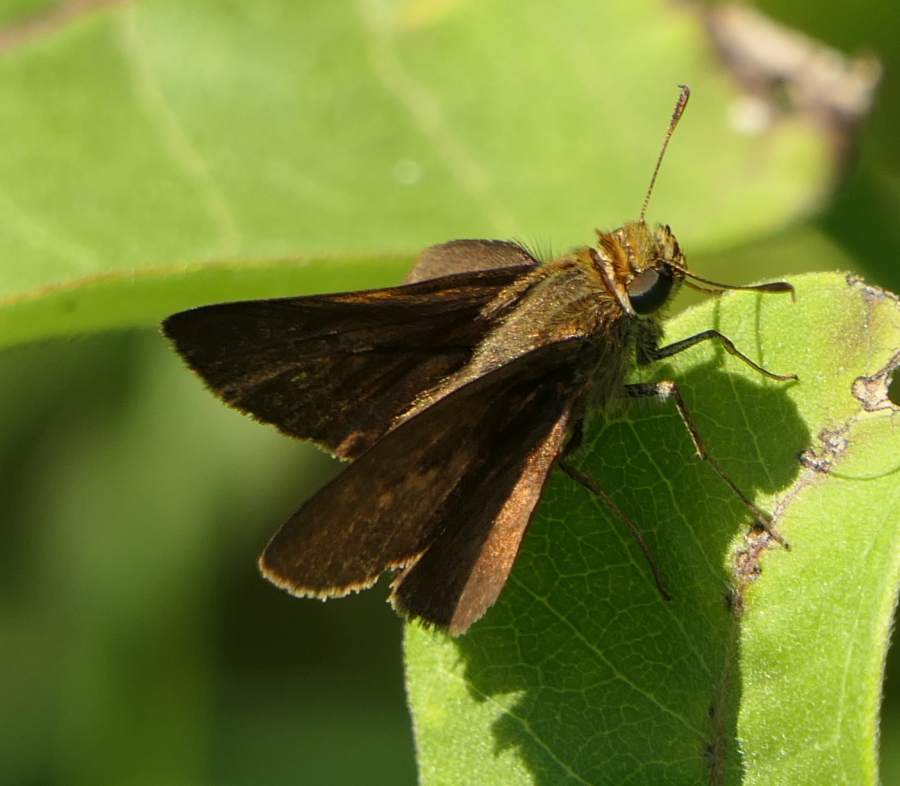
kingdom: Animalia
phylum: Arthropoda
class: Insecta
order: Lepidoptera
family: Hesperiidae
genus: Euphyes
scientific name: Euphyes vestris
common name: Dun skipper
